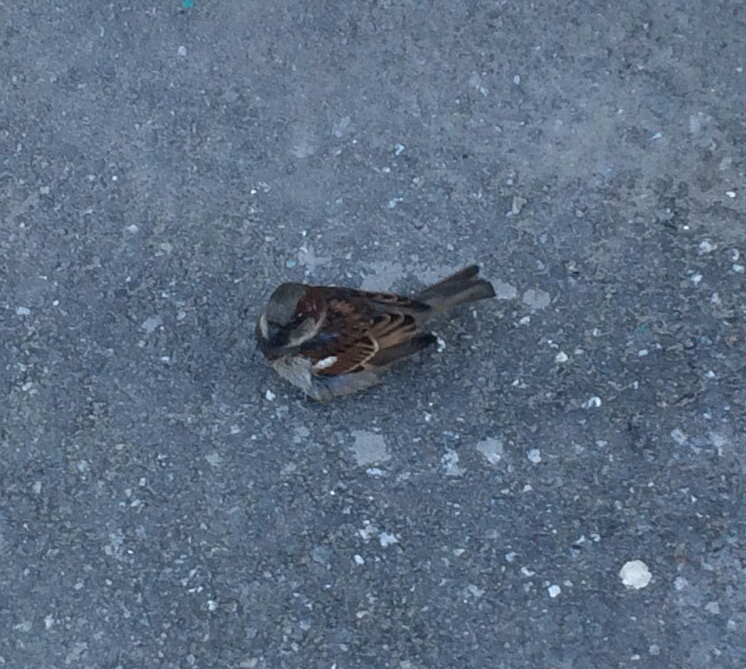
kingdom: Animalia
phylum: Chordata
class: Aves
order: Passeriformes
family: Passeridae
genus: Passer
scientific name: Passer domesticus
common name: House sparrow
